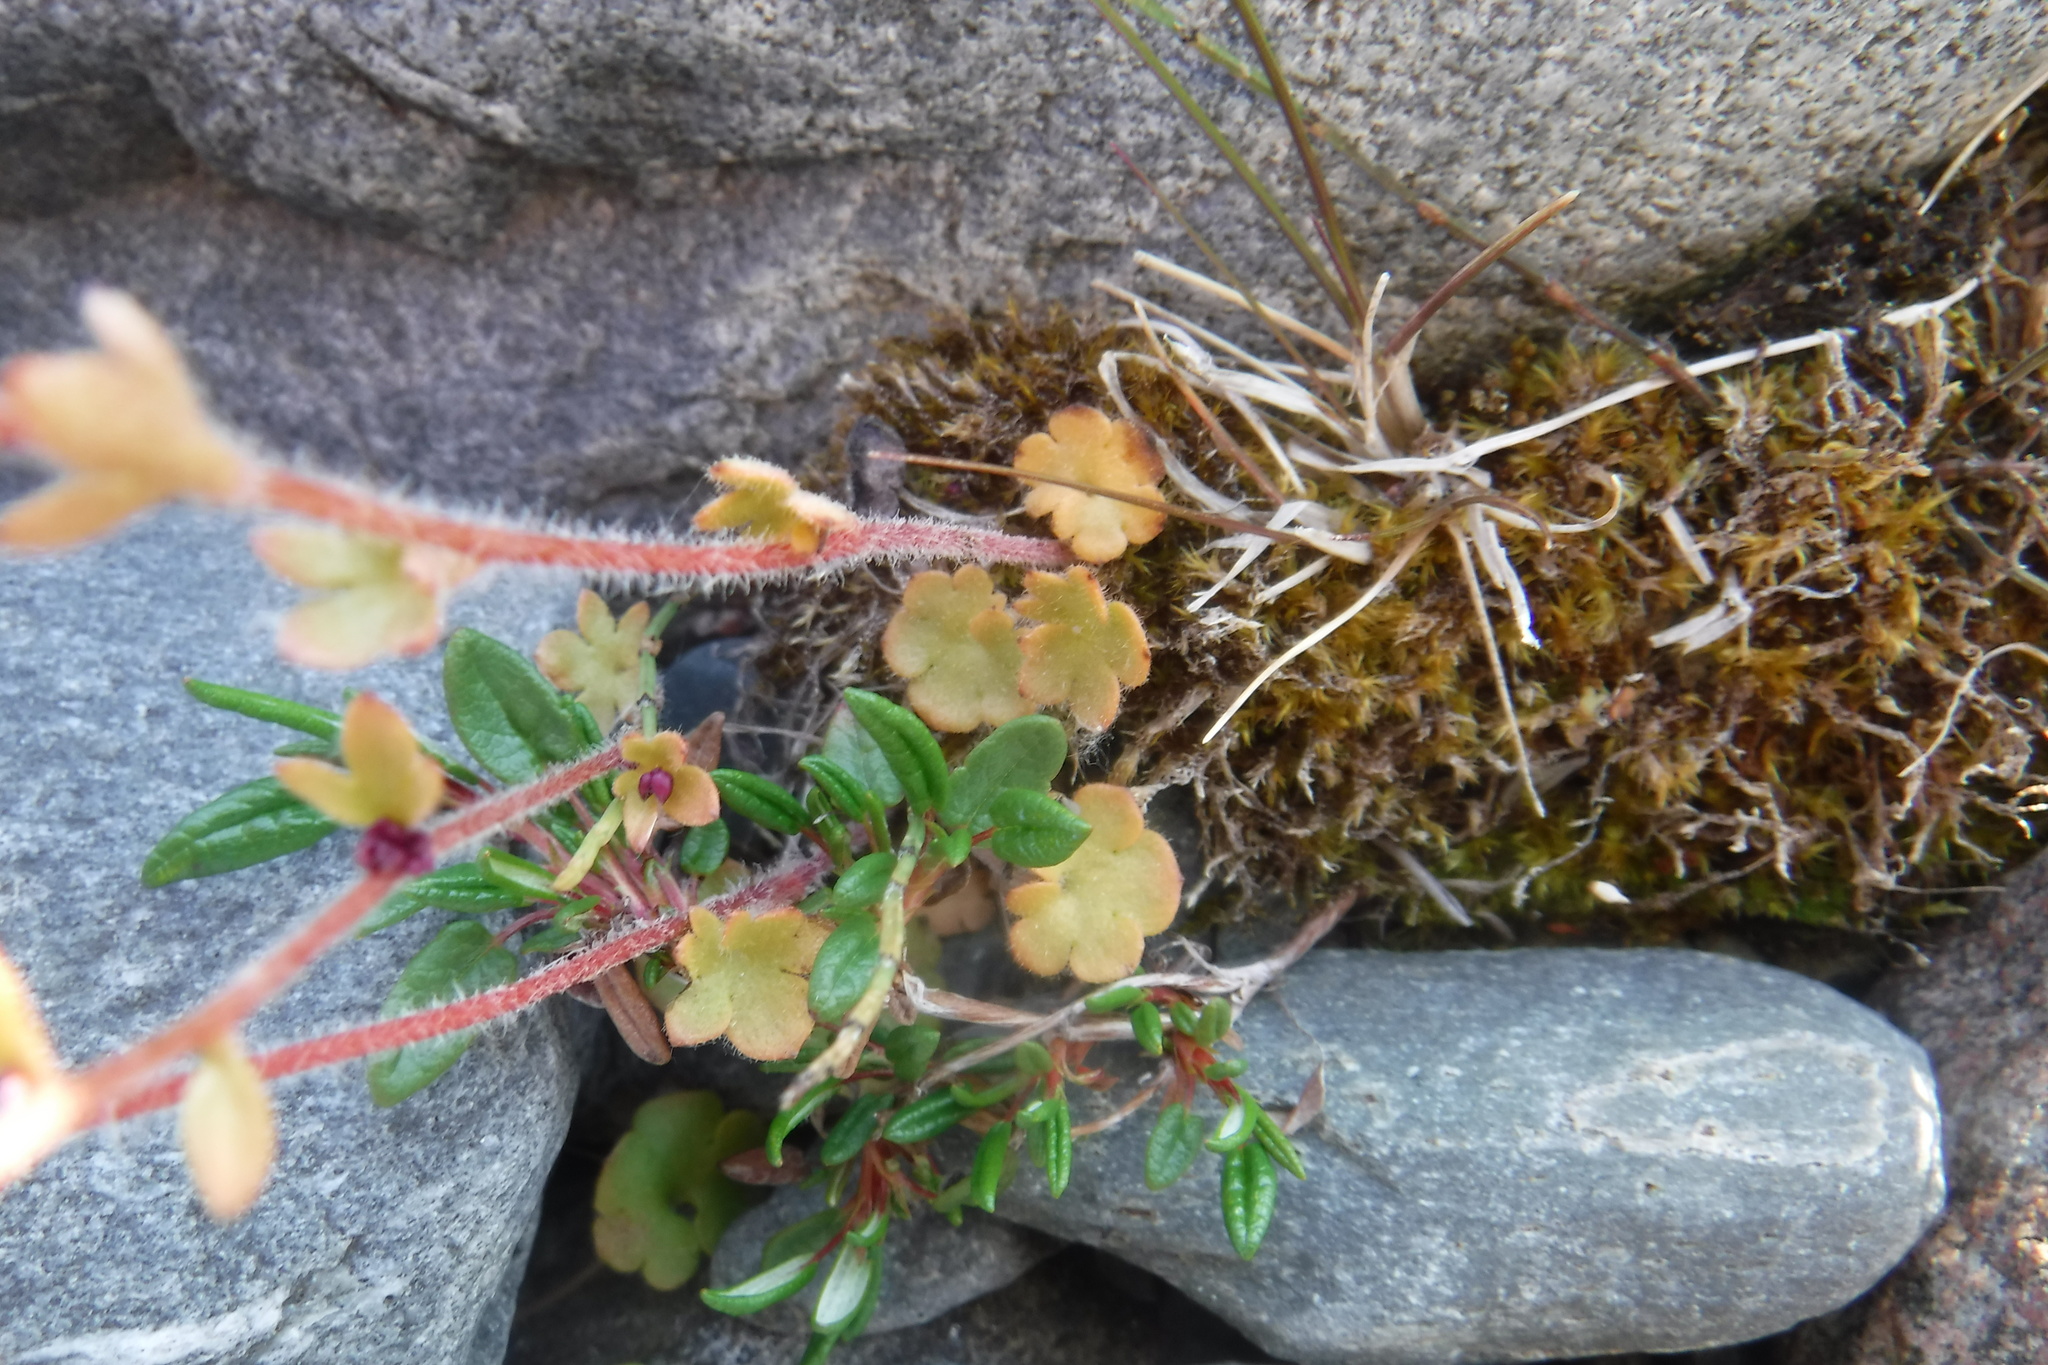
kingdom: Plantae
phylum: Tracheophyta
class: Magnoliopsida
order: Saxifragales
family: Saxifragaceae
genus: Saxifraga
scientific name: Saxifraga cernua
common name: Drooping saxifrage
